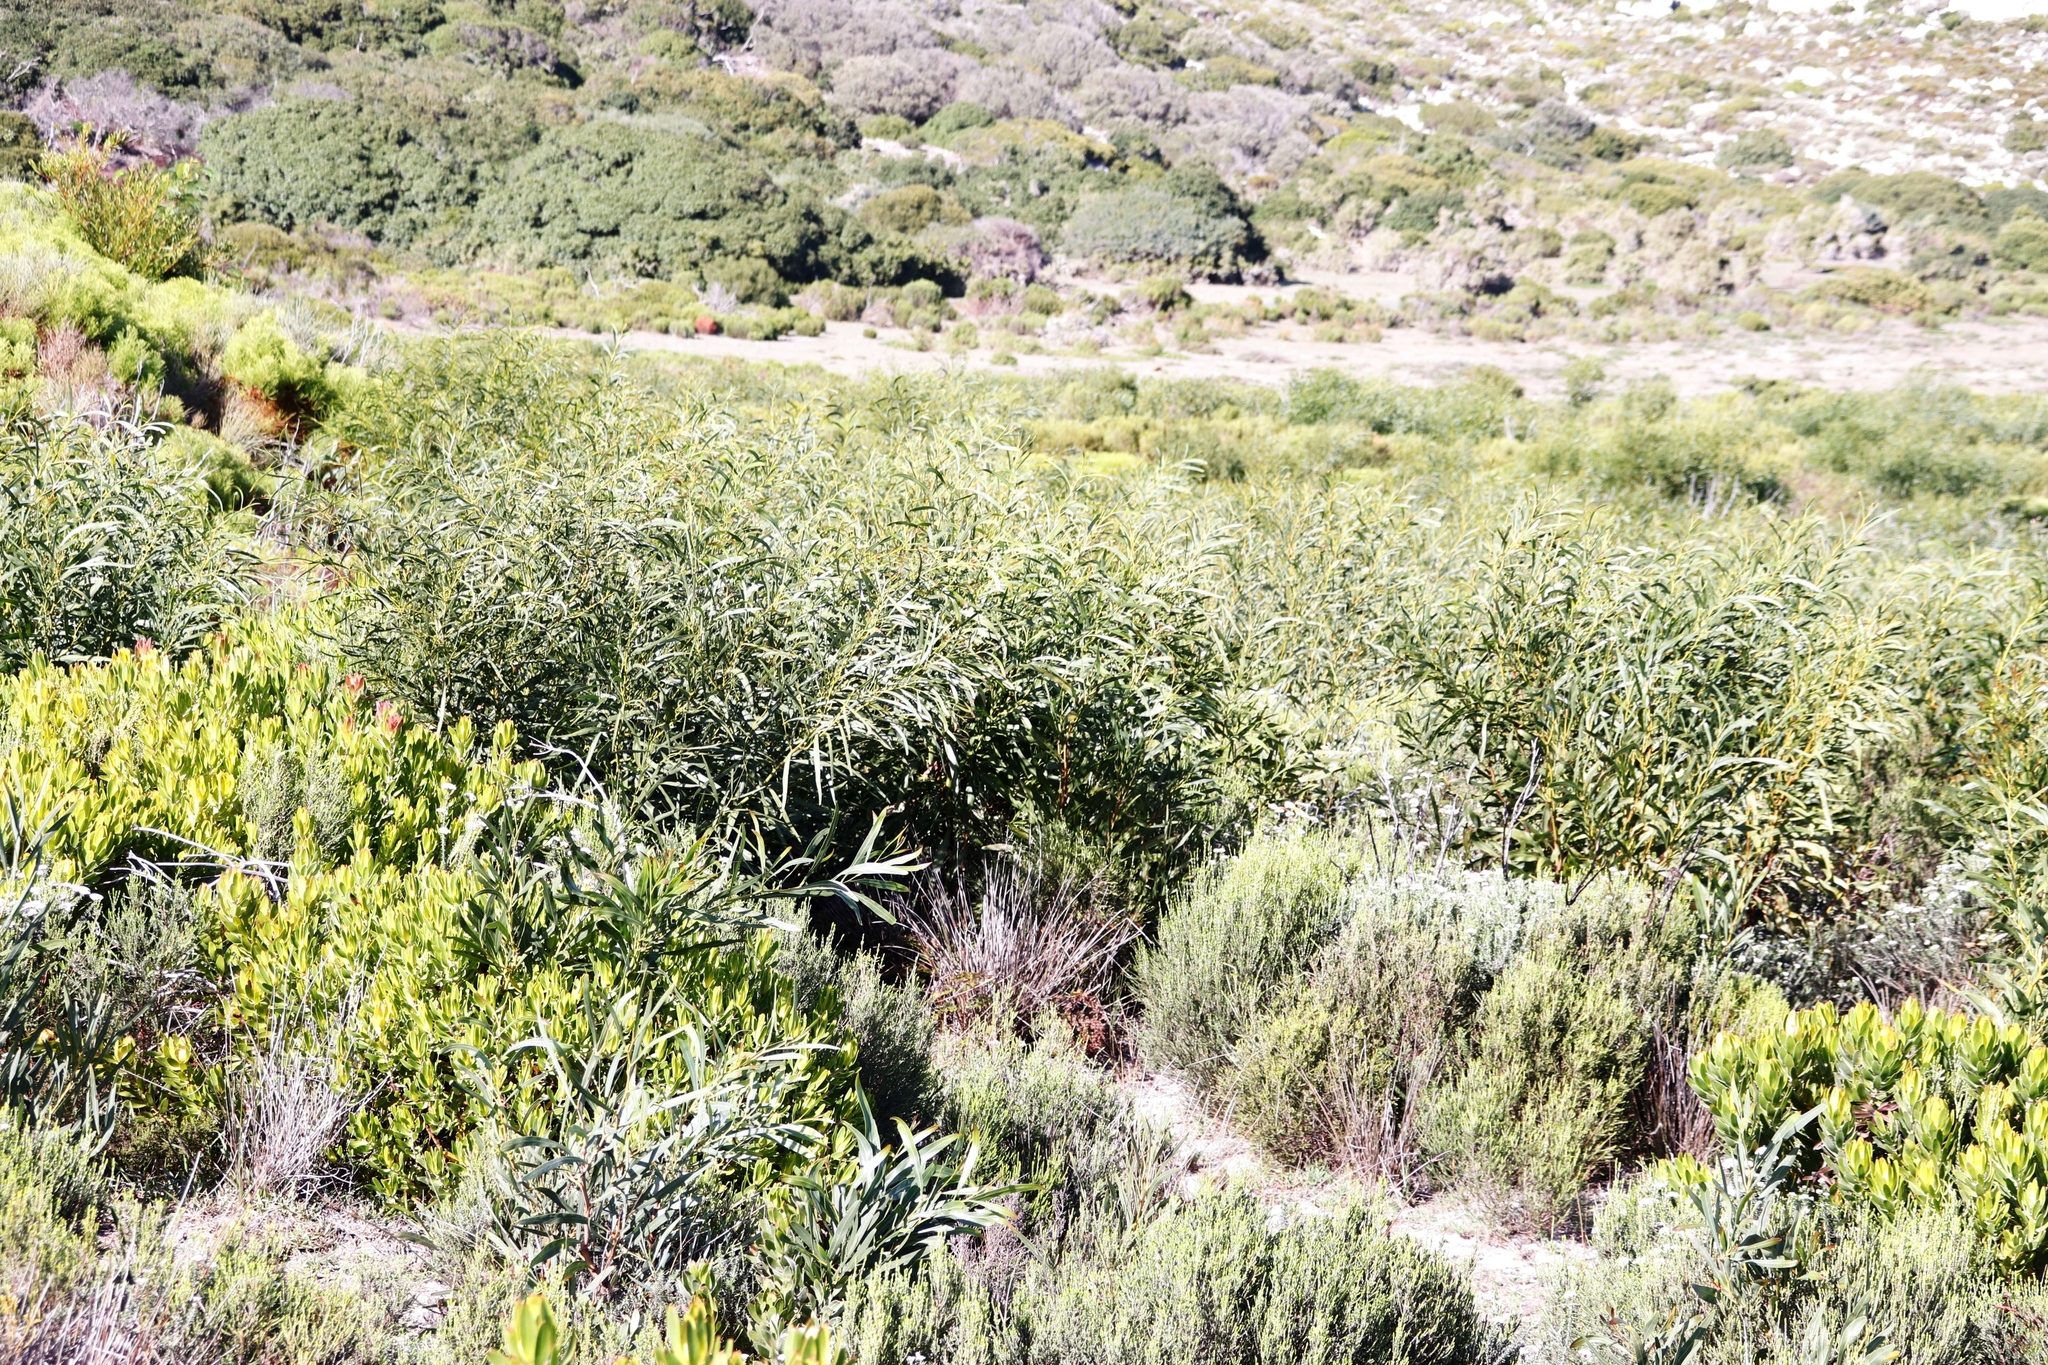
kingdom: Plantae
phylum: Tracheophyta
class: Magnoliopsida
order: Fabales
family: Fabaceae
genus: Acacia
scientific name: Acacia saligna
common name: Orange wattle
